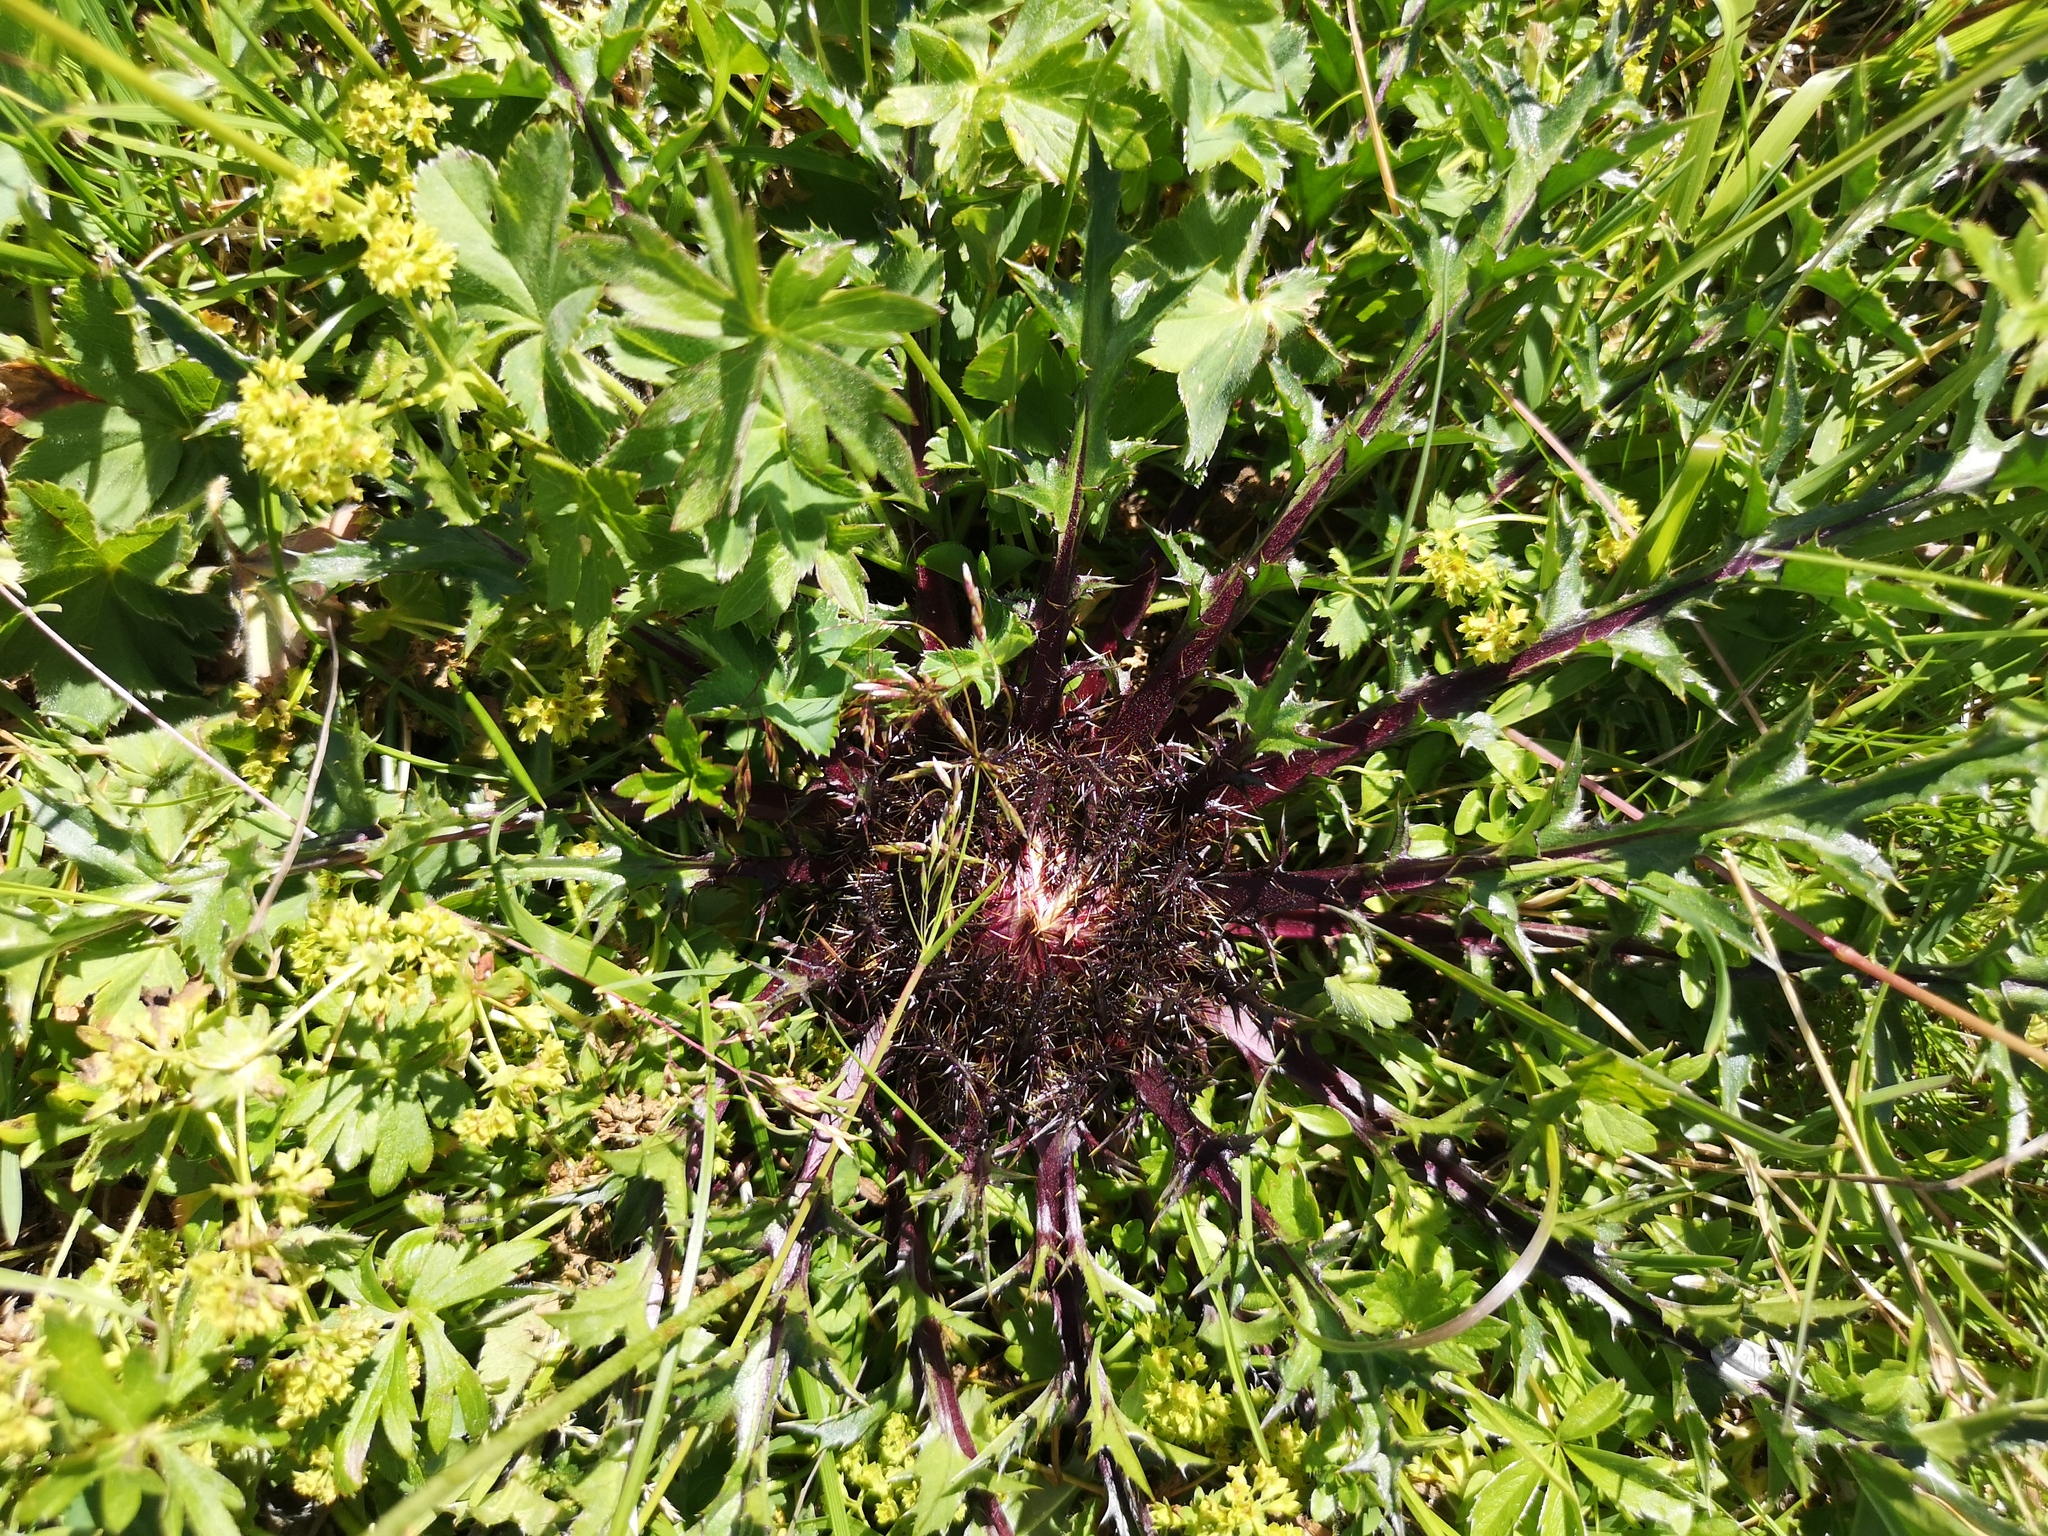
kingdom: Plantae
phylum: Tracheophyta
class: Magnoliopsida
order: Asterales
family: Asteraceae
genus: Carlina
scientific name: Carlina acaulis
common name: Stemless carline thistle
